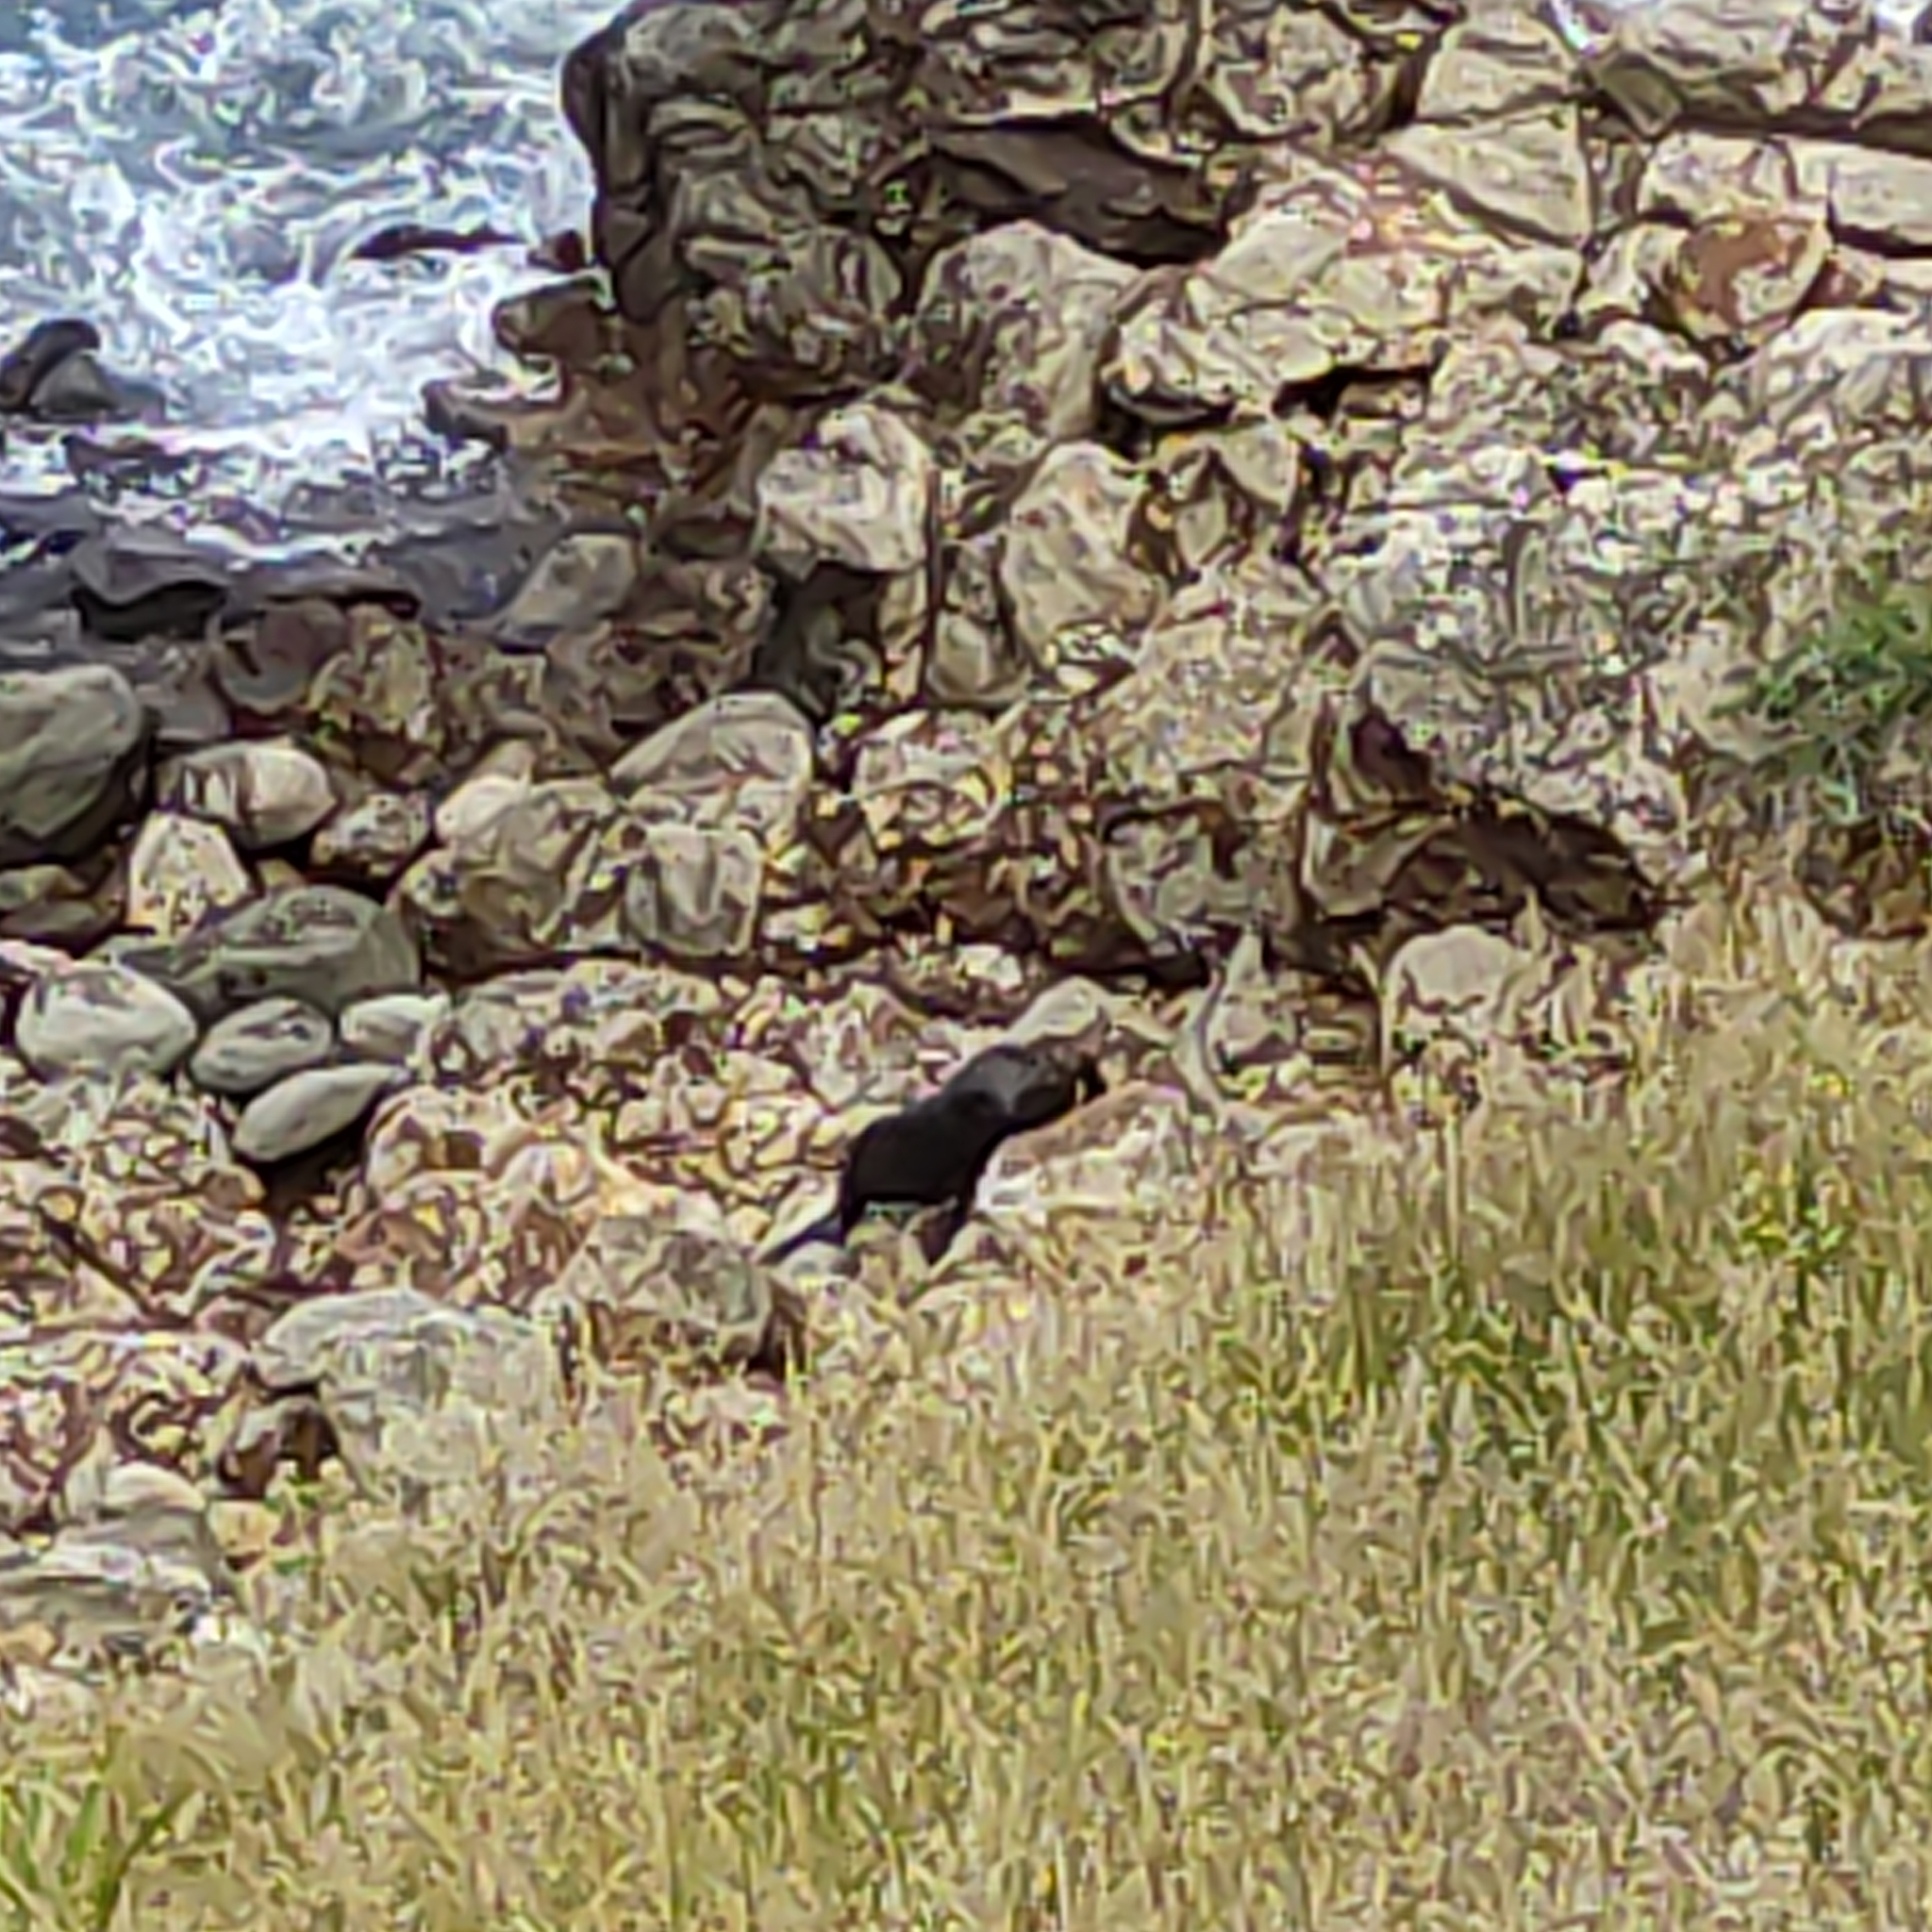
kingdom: Animalia
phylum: Chordata
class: Mammalia
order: Carnivora
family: Otariidae
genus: Arctocephalus
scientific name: Arctocephalus forsteri
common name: New zealand fur seal
